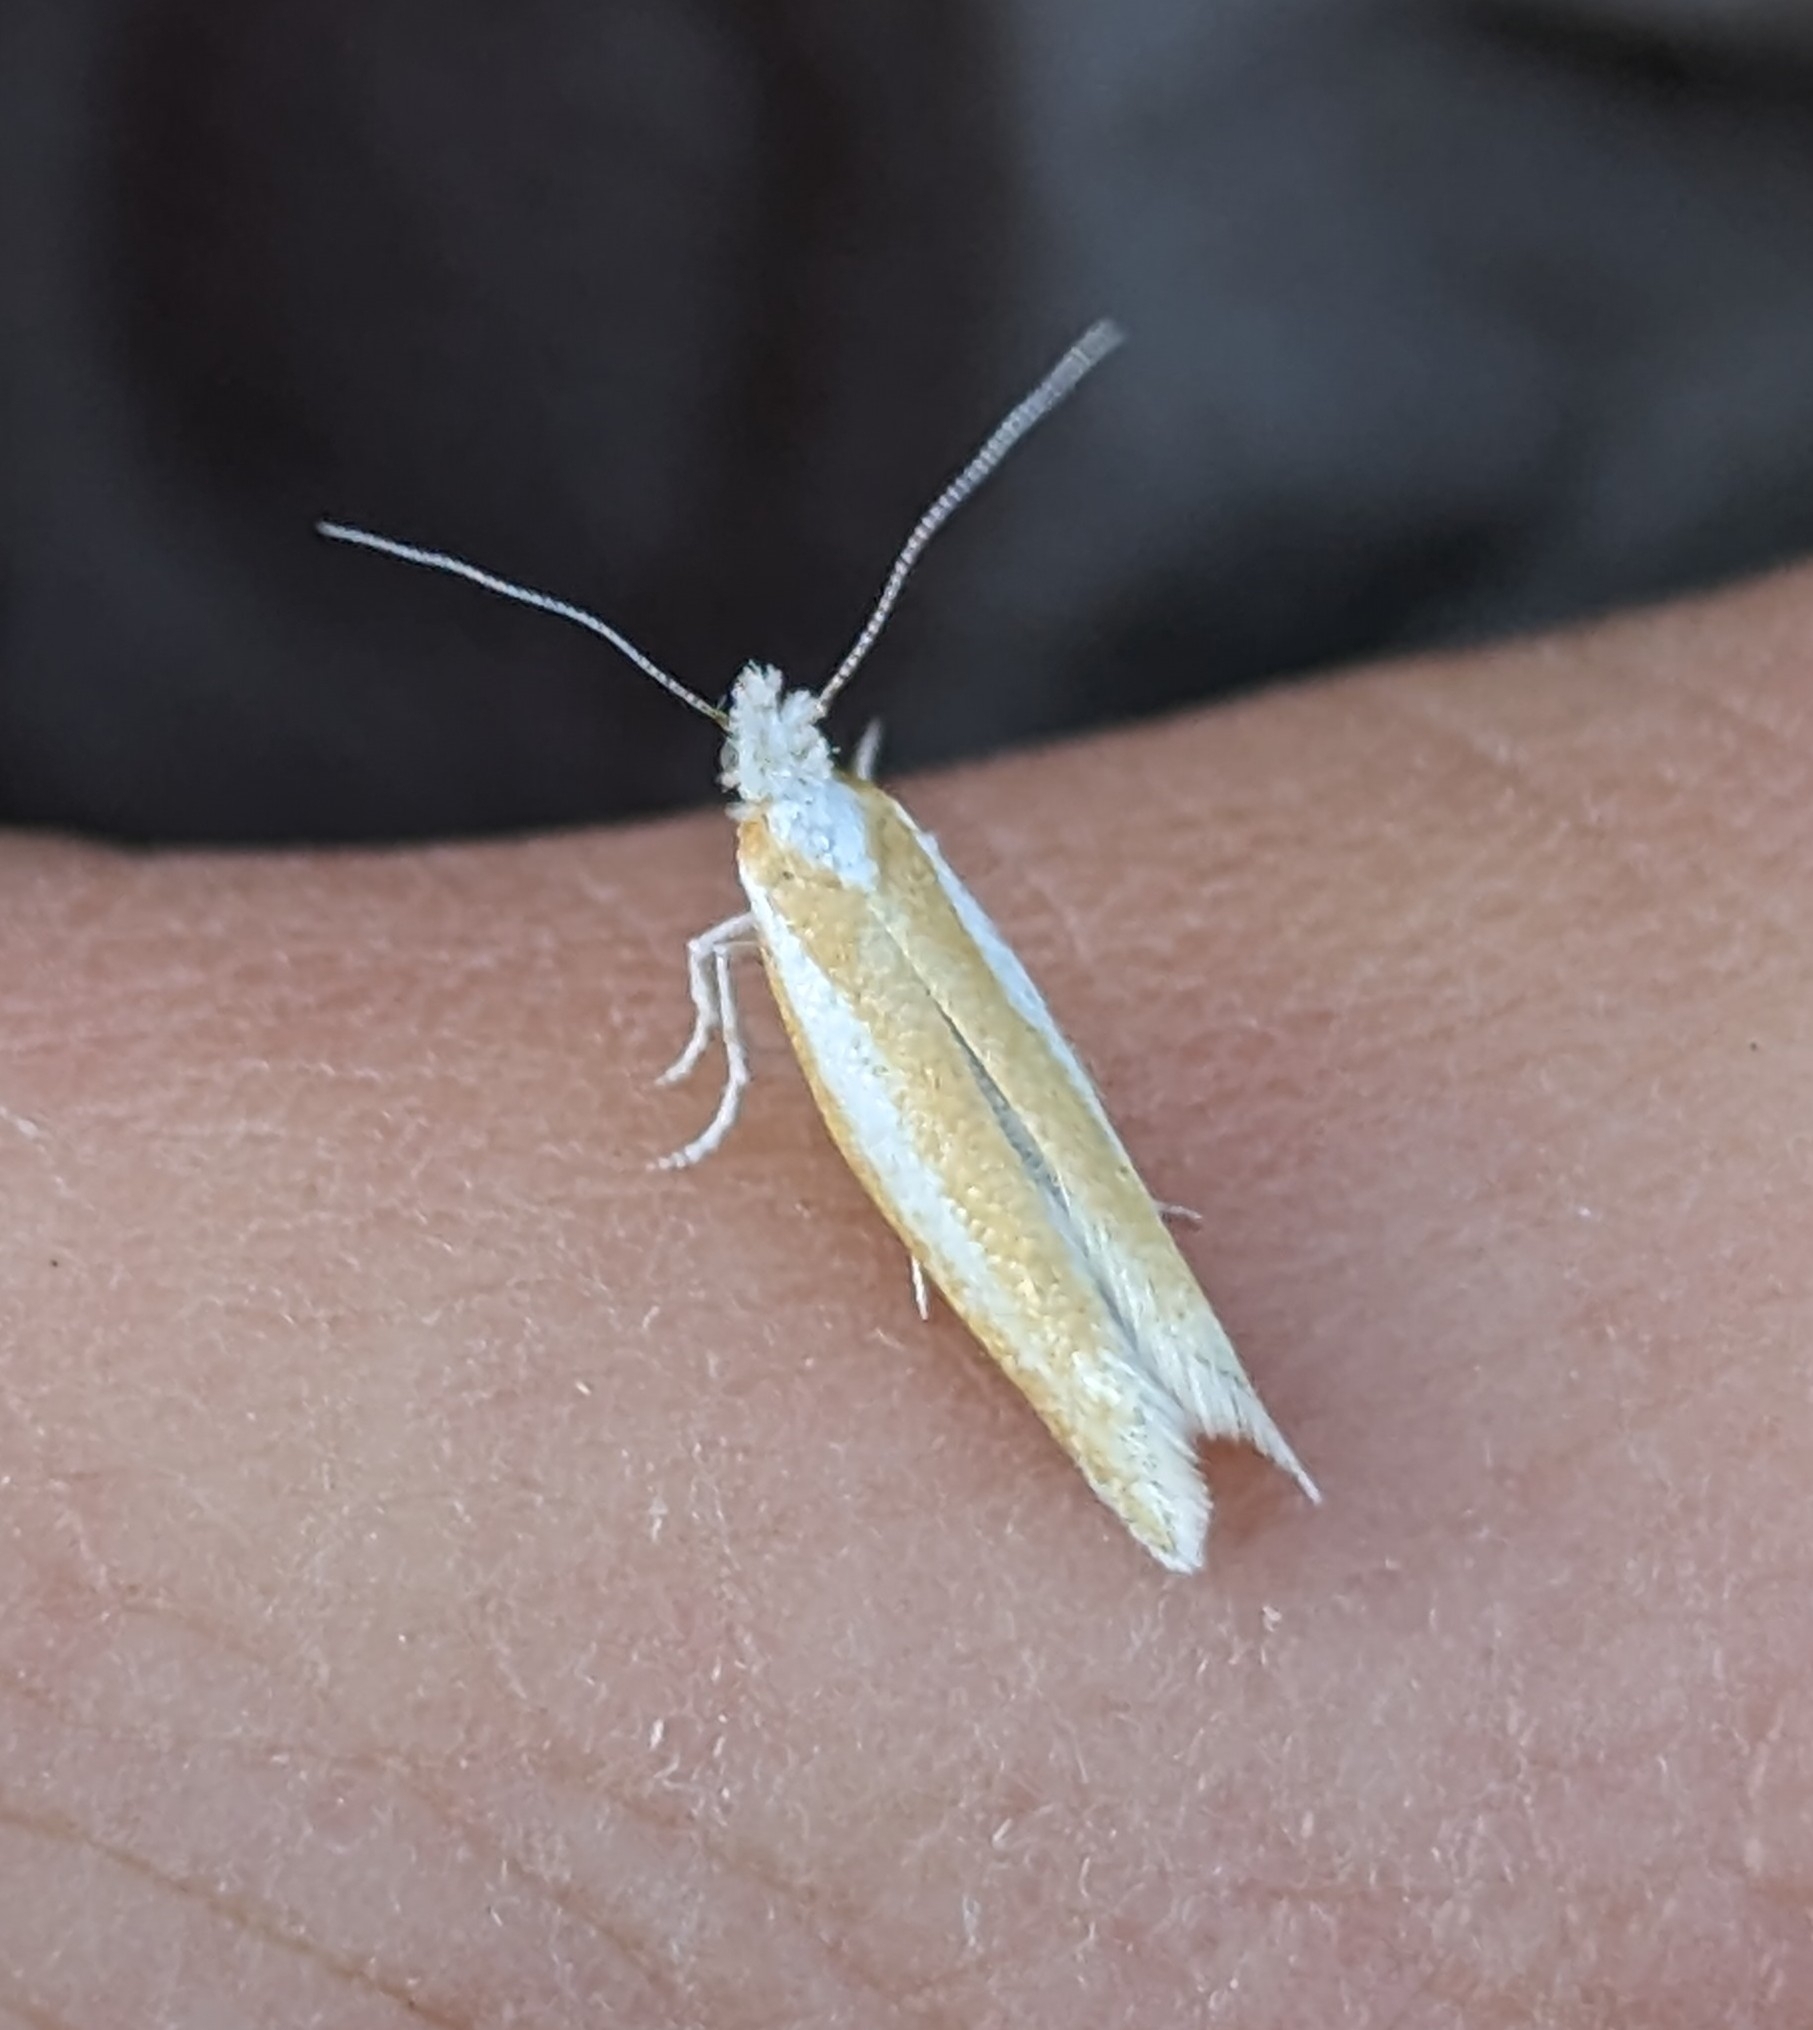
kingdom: Animalia
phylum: Arthropoda
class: Insecta
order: Lepidoptera
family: Yponomeutidae
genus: Zelleria
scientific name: Zelleria haimbachi
